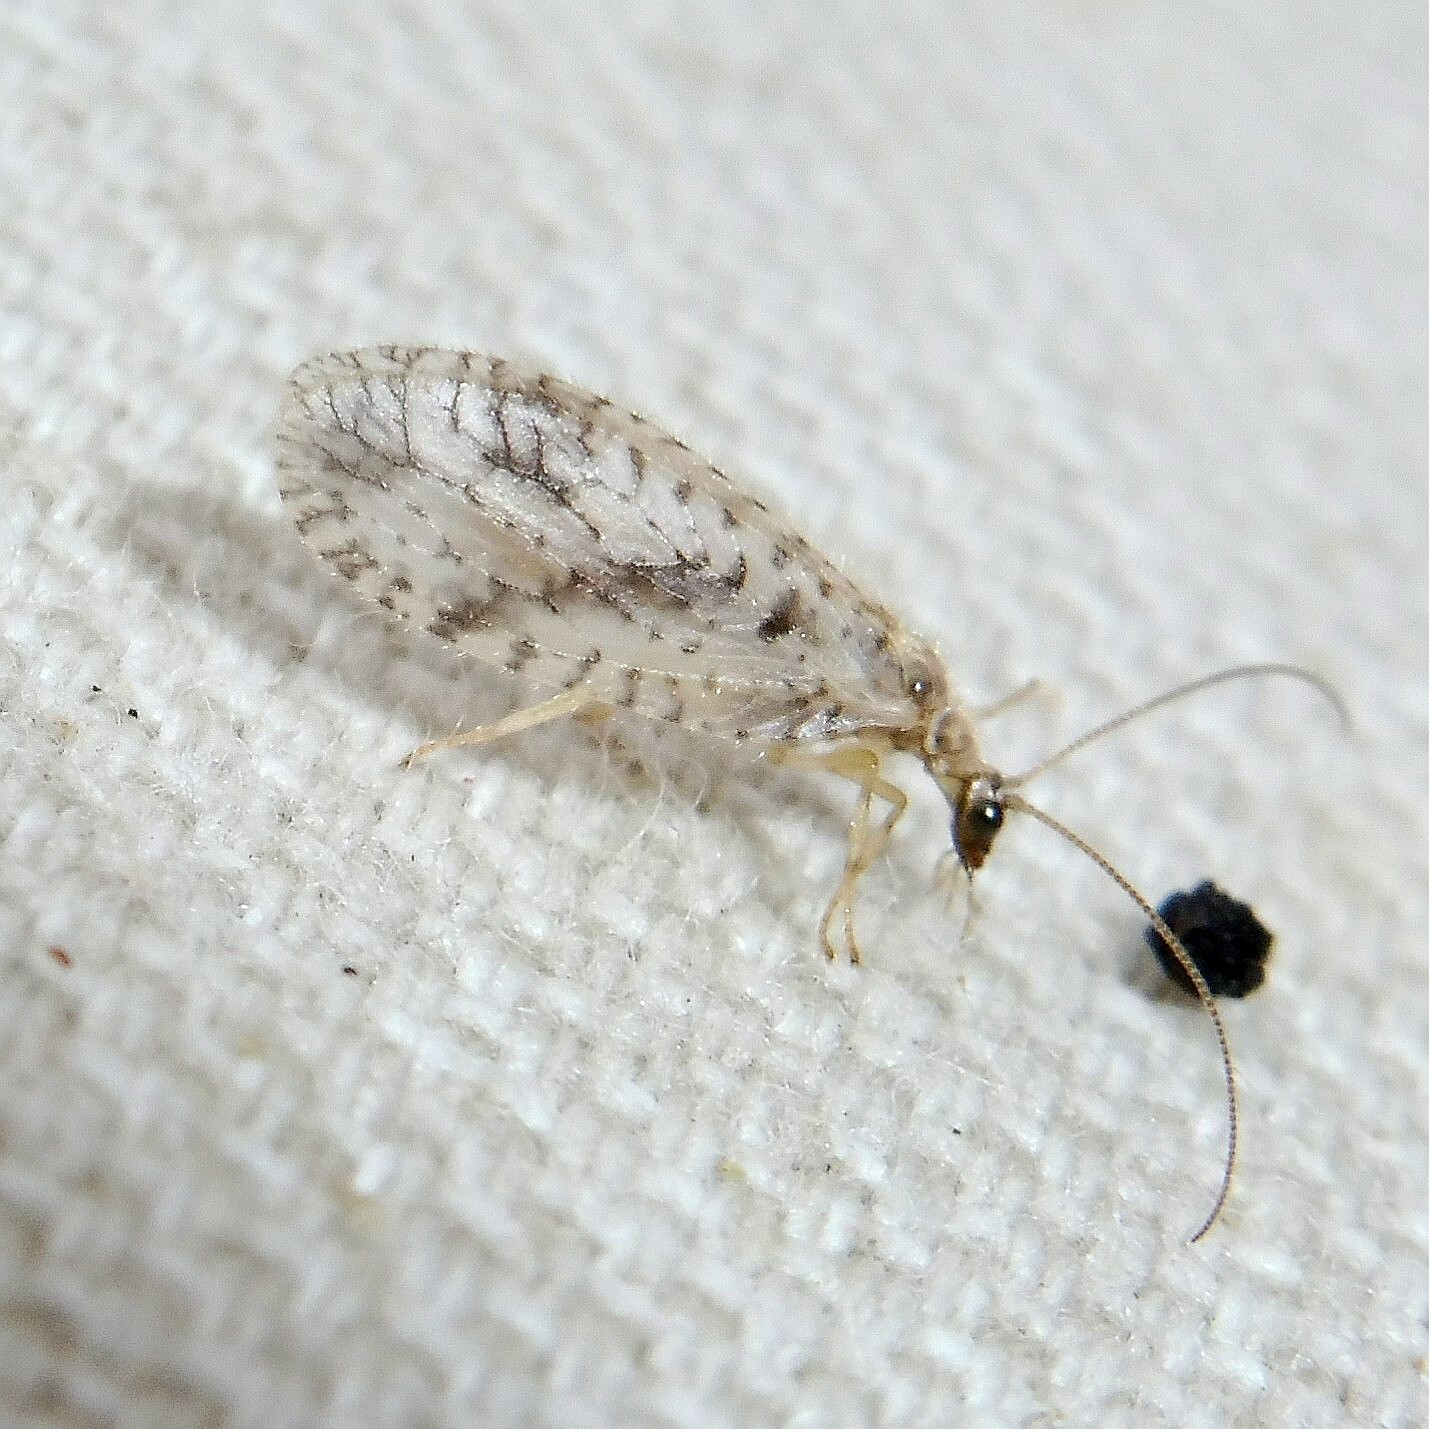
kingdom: Animalia
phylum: Arthropoda
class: Insecta
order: Neuroptera
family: Hemerobiidae
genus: Micromus
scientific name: Micromus variegatus
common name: Brown lacewing
